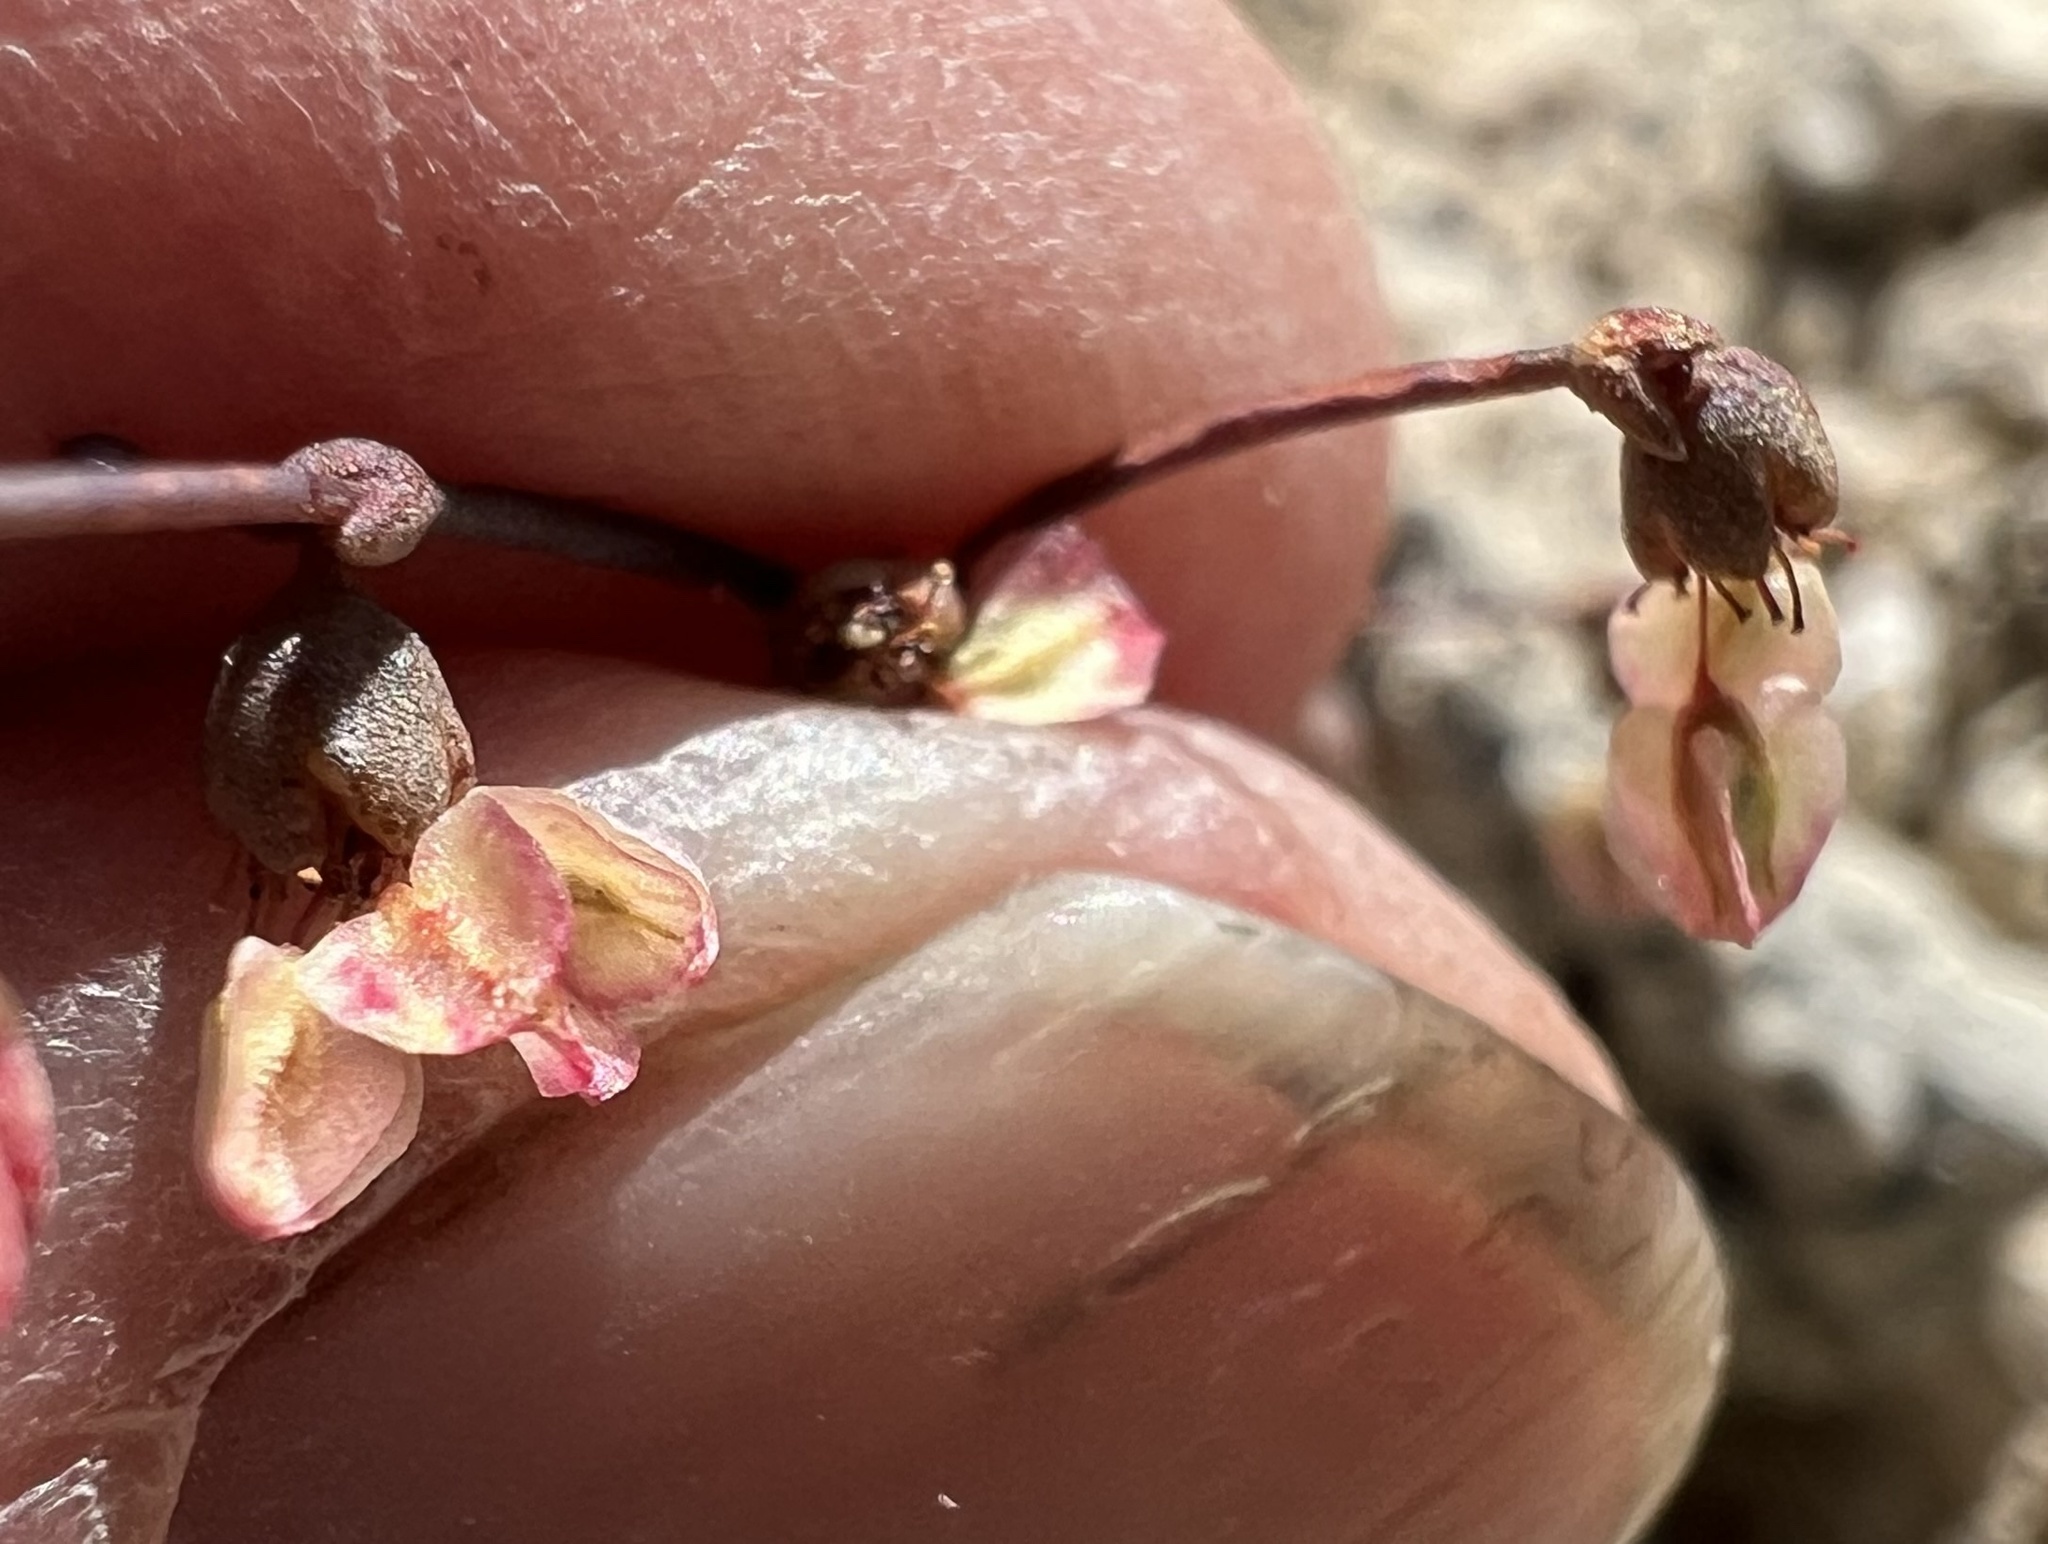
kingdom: Plantae
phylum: Tracheophyta
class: Magnoliopsida
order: Caryophyllales
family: Polygonaceae
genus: Eriogonum
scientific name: Eriogonum hookeri
